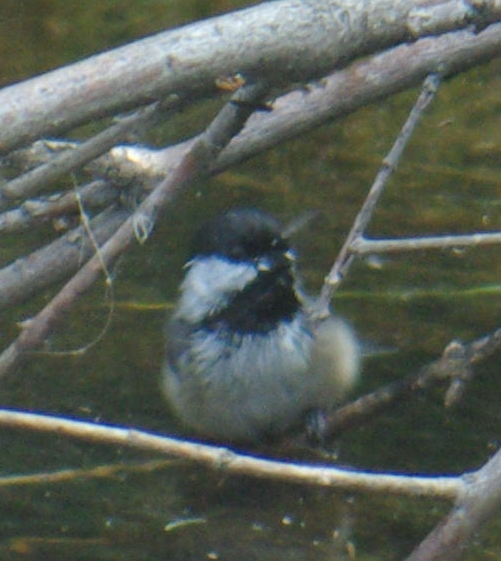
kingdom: Animalia
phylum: Chordata
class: Aves
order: Passeriformes
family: Paridae
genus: Poecile
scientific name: Poecile atricapillus
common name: Black-capped chickadee
